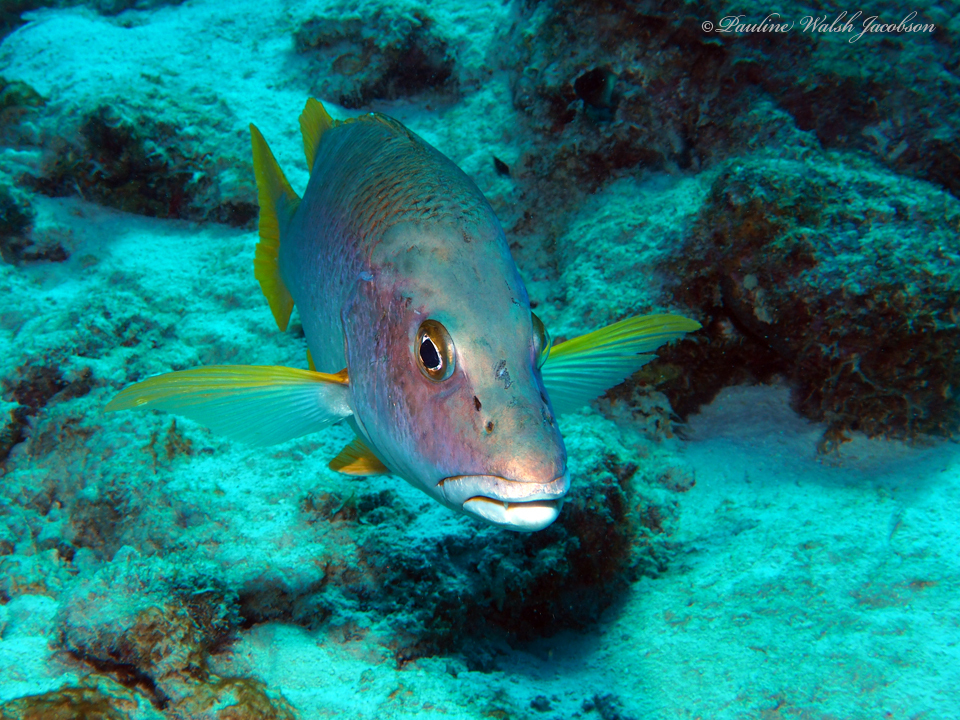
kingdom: Animalia
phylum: Chordata
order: Perciformes
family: Lutjanidae
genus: Lutjanus
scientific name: Lutjanus apodus
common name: Schoolmaster
